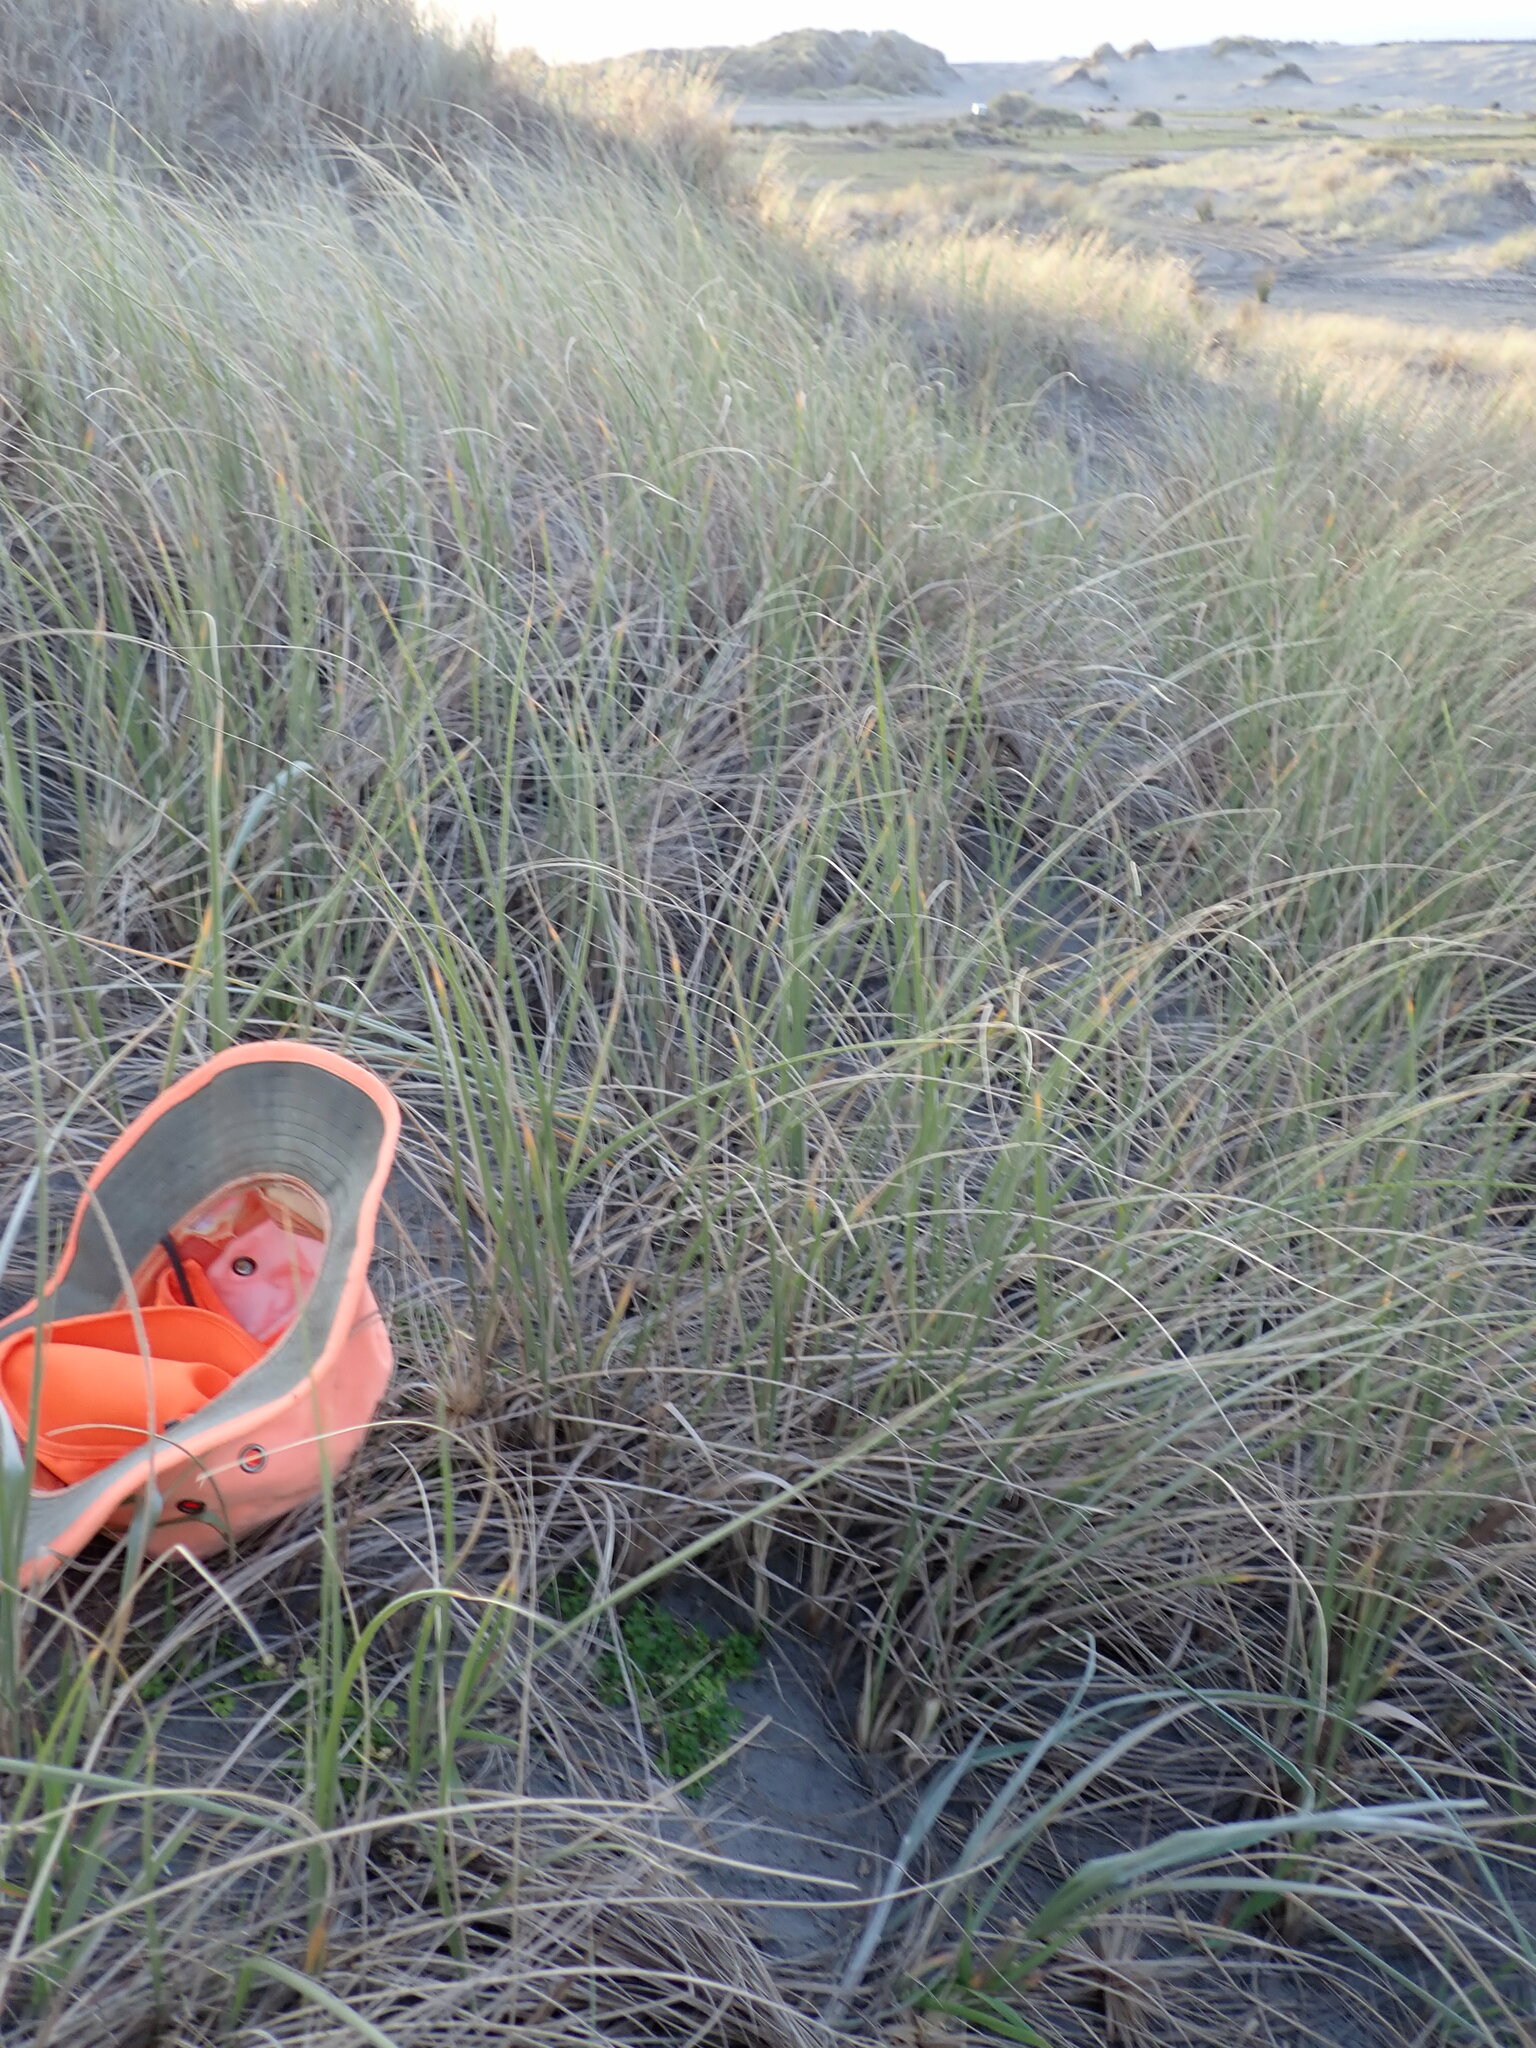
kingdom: Plantae
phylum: Tracheophyta
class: Magnoliopsida
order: Apiales
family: Apiaceae
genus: Apium
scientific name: Apium prostratum
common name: Prostrate marshwort
